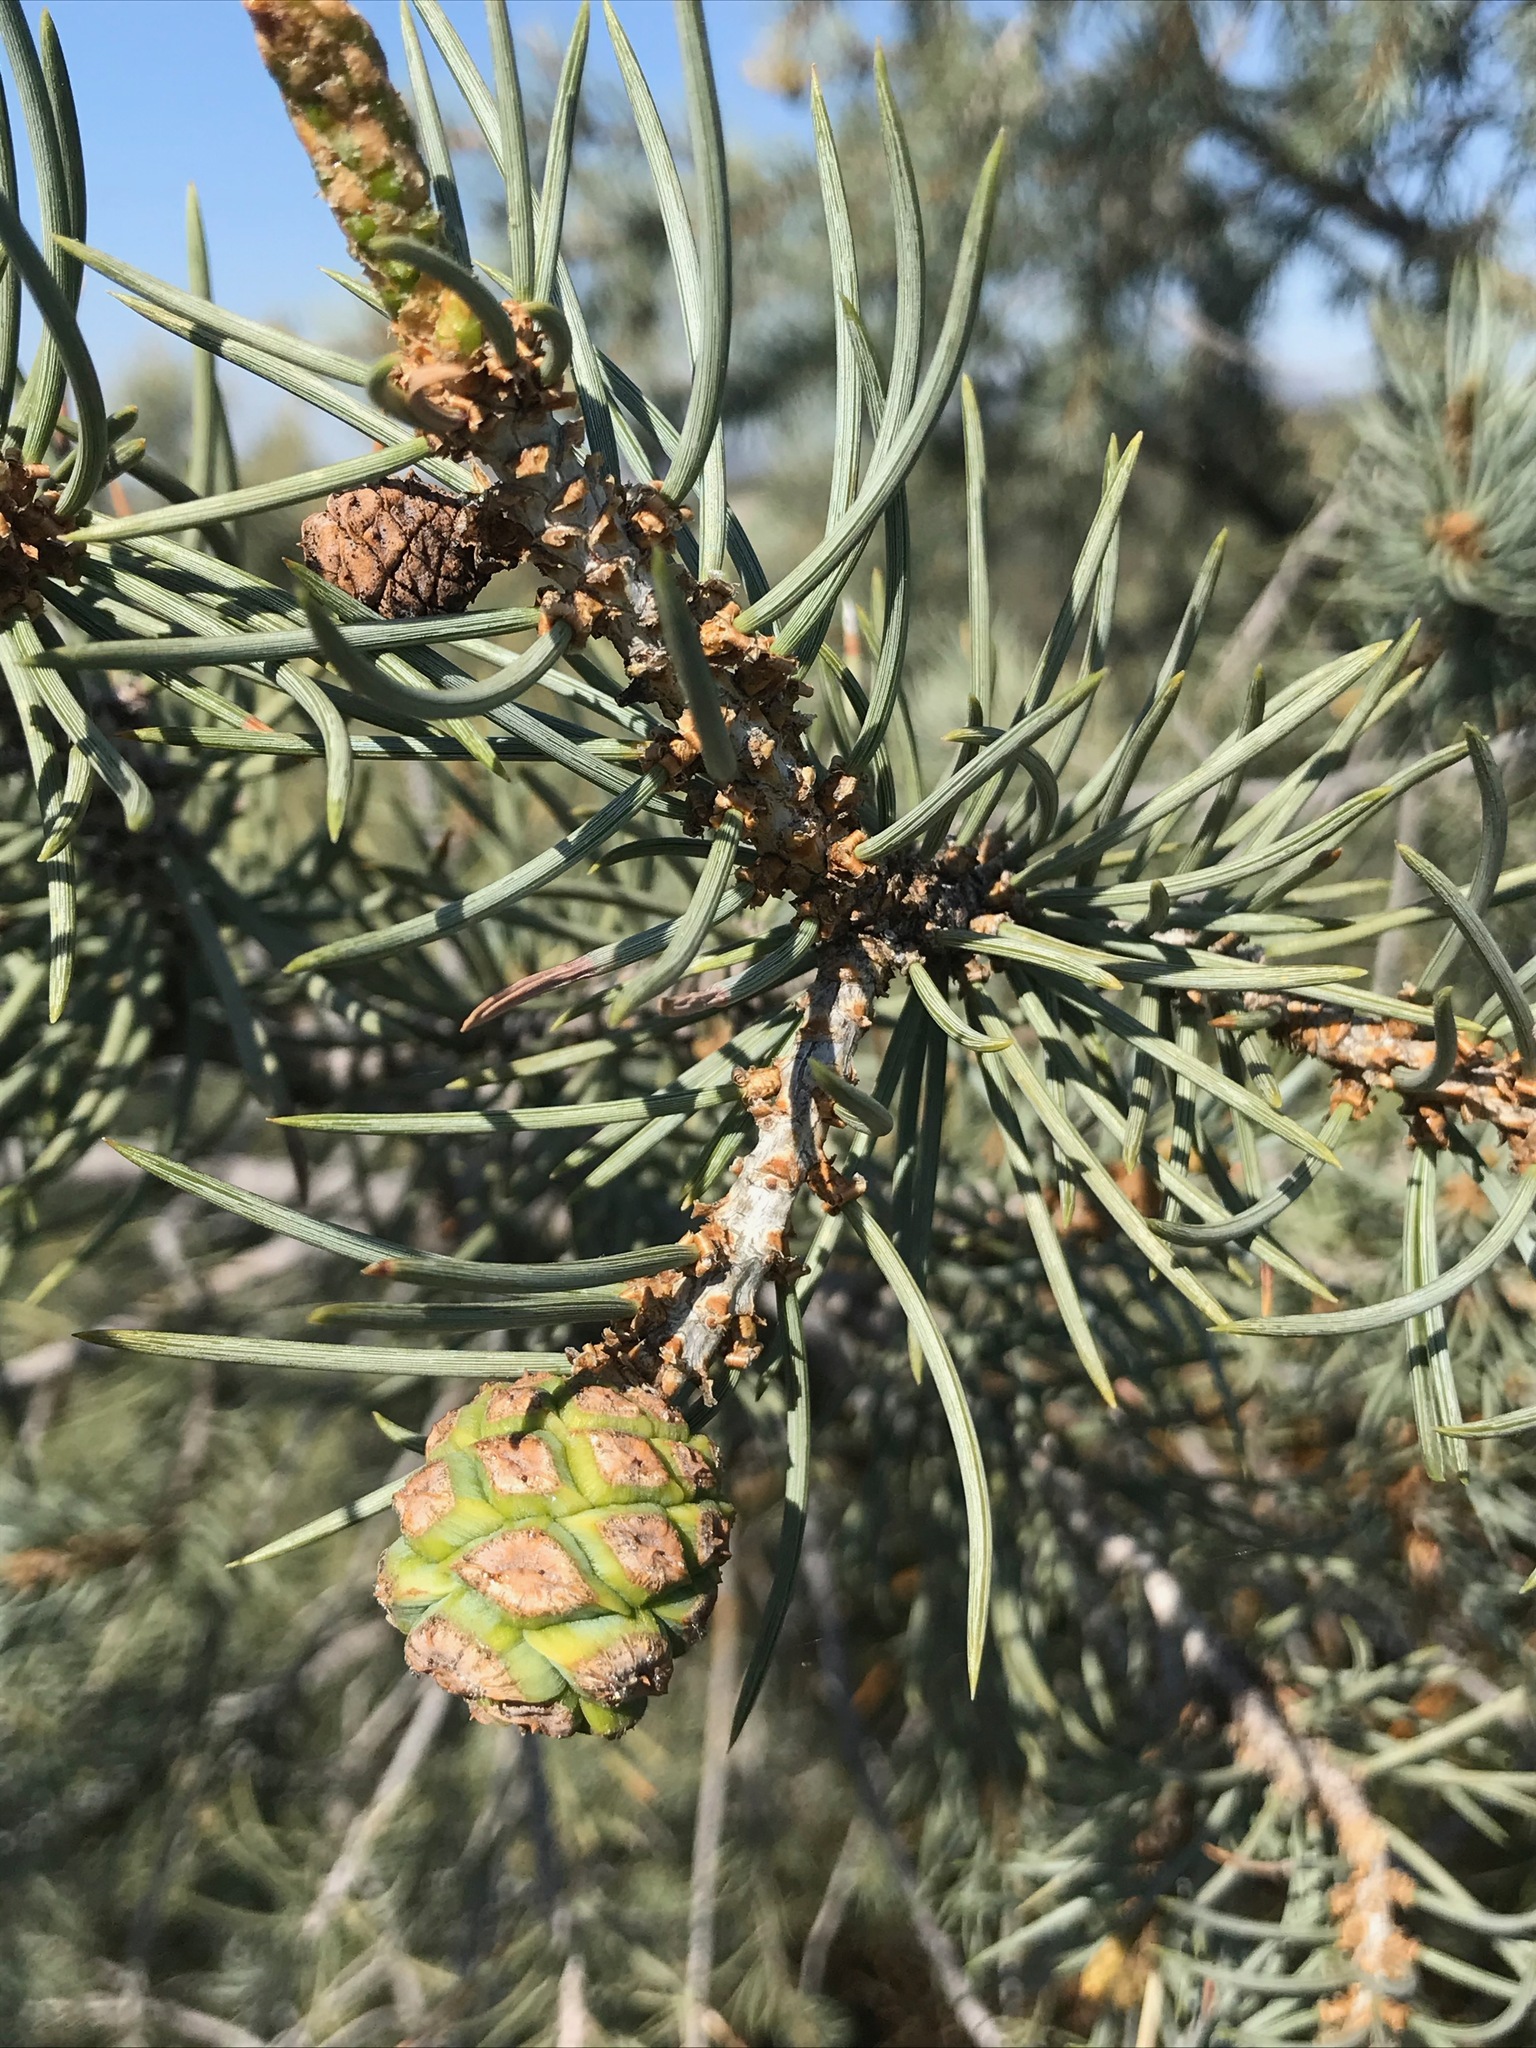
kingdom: Plantae
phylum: Tracheophyta
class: Pinopsida
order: Pinales
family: Pinaceae
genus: Pinus
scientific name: Pinus monophylla
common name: One-leaved nut pine
